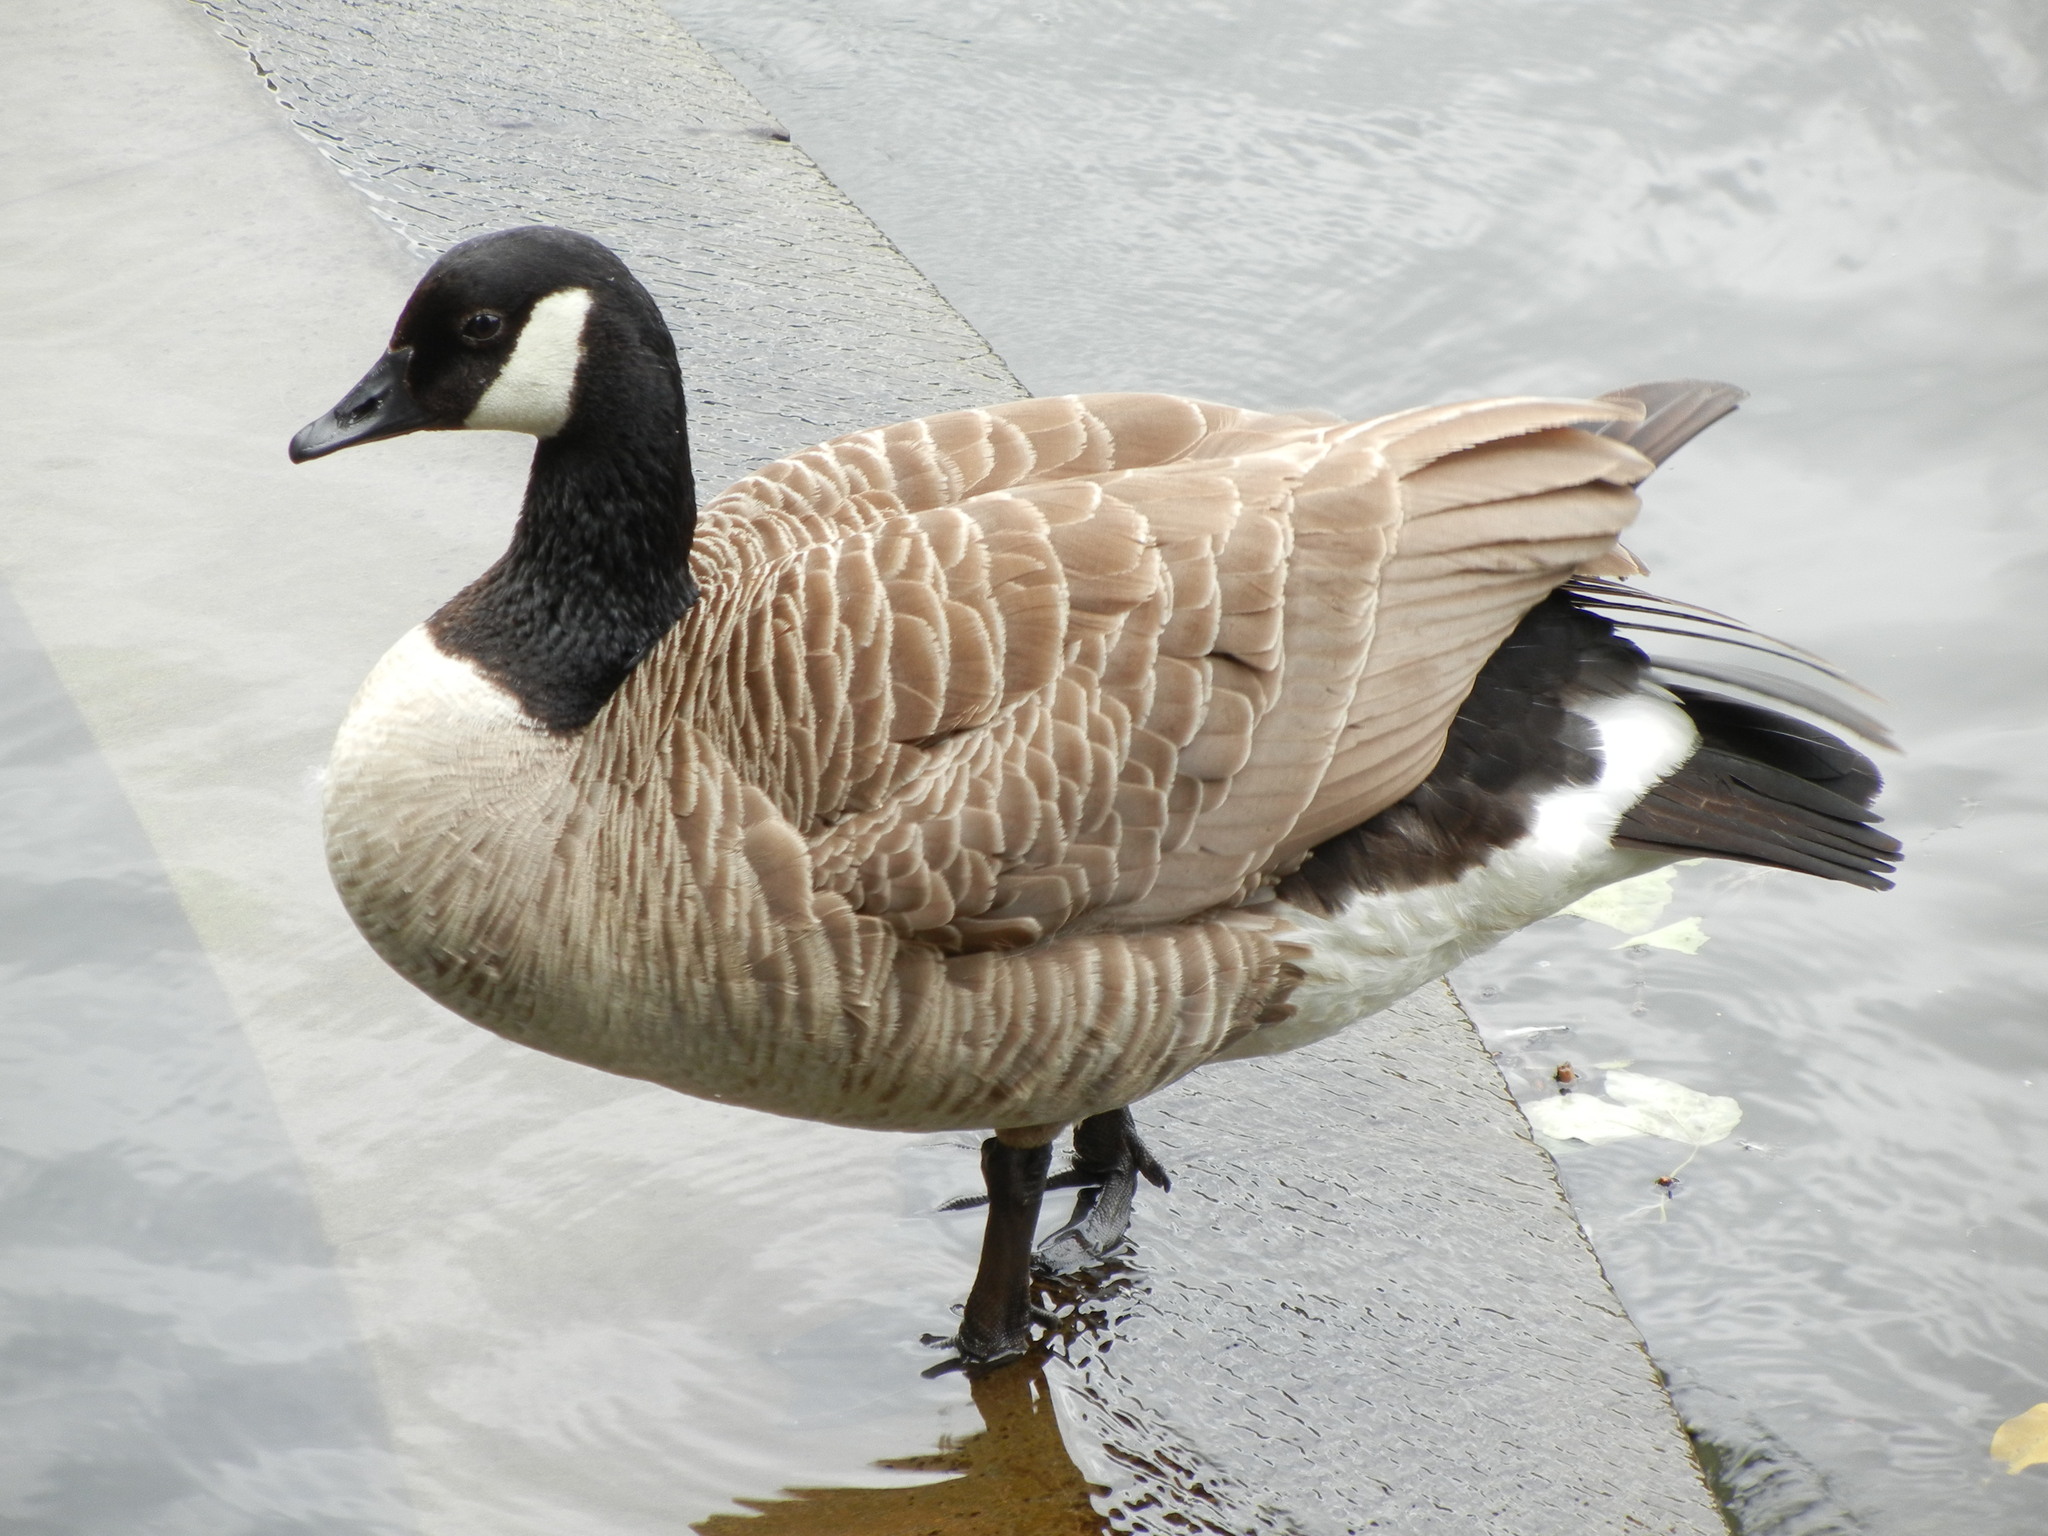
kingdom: Animalia
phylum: Chordata
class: Aves
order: Anseriformes
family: Anatidae
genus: Branta
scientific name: Branta canadensis
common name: Canada goose
